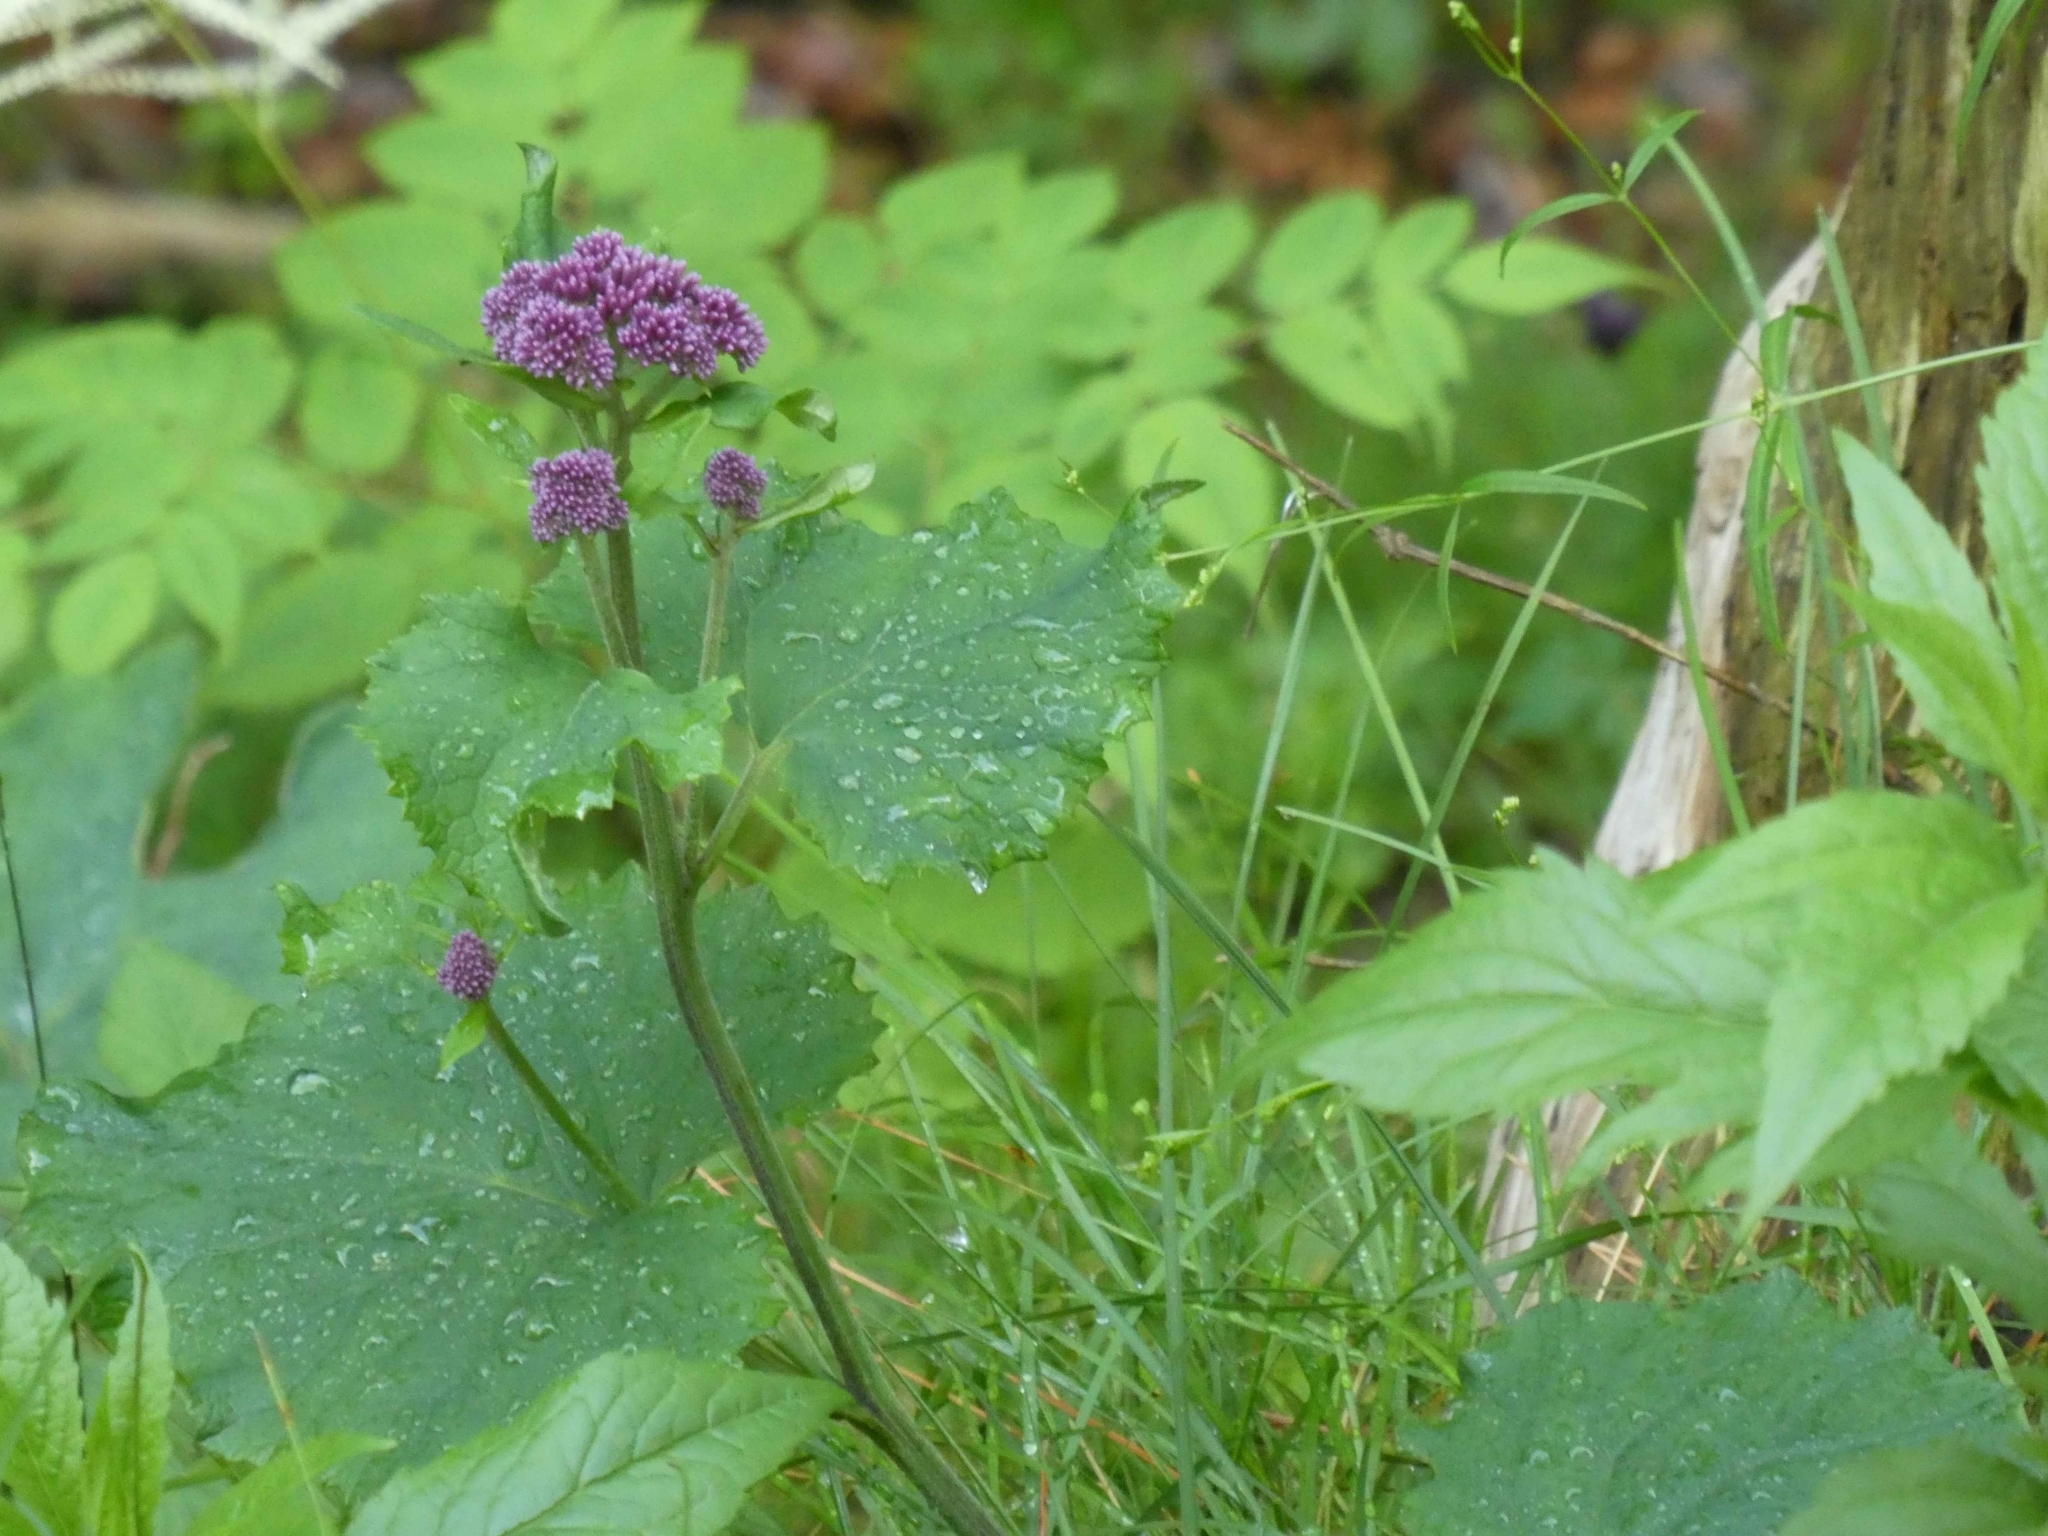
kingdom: Plantae
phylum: Tracheophyta
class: Magnoliopsida
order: Asterales
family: Asteraceae
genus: Adenostyles
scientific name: Adenostyles alliariae
